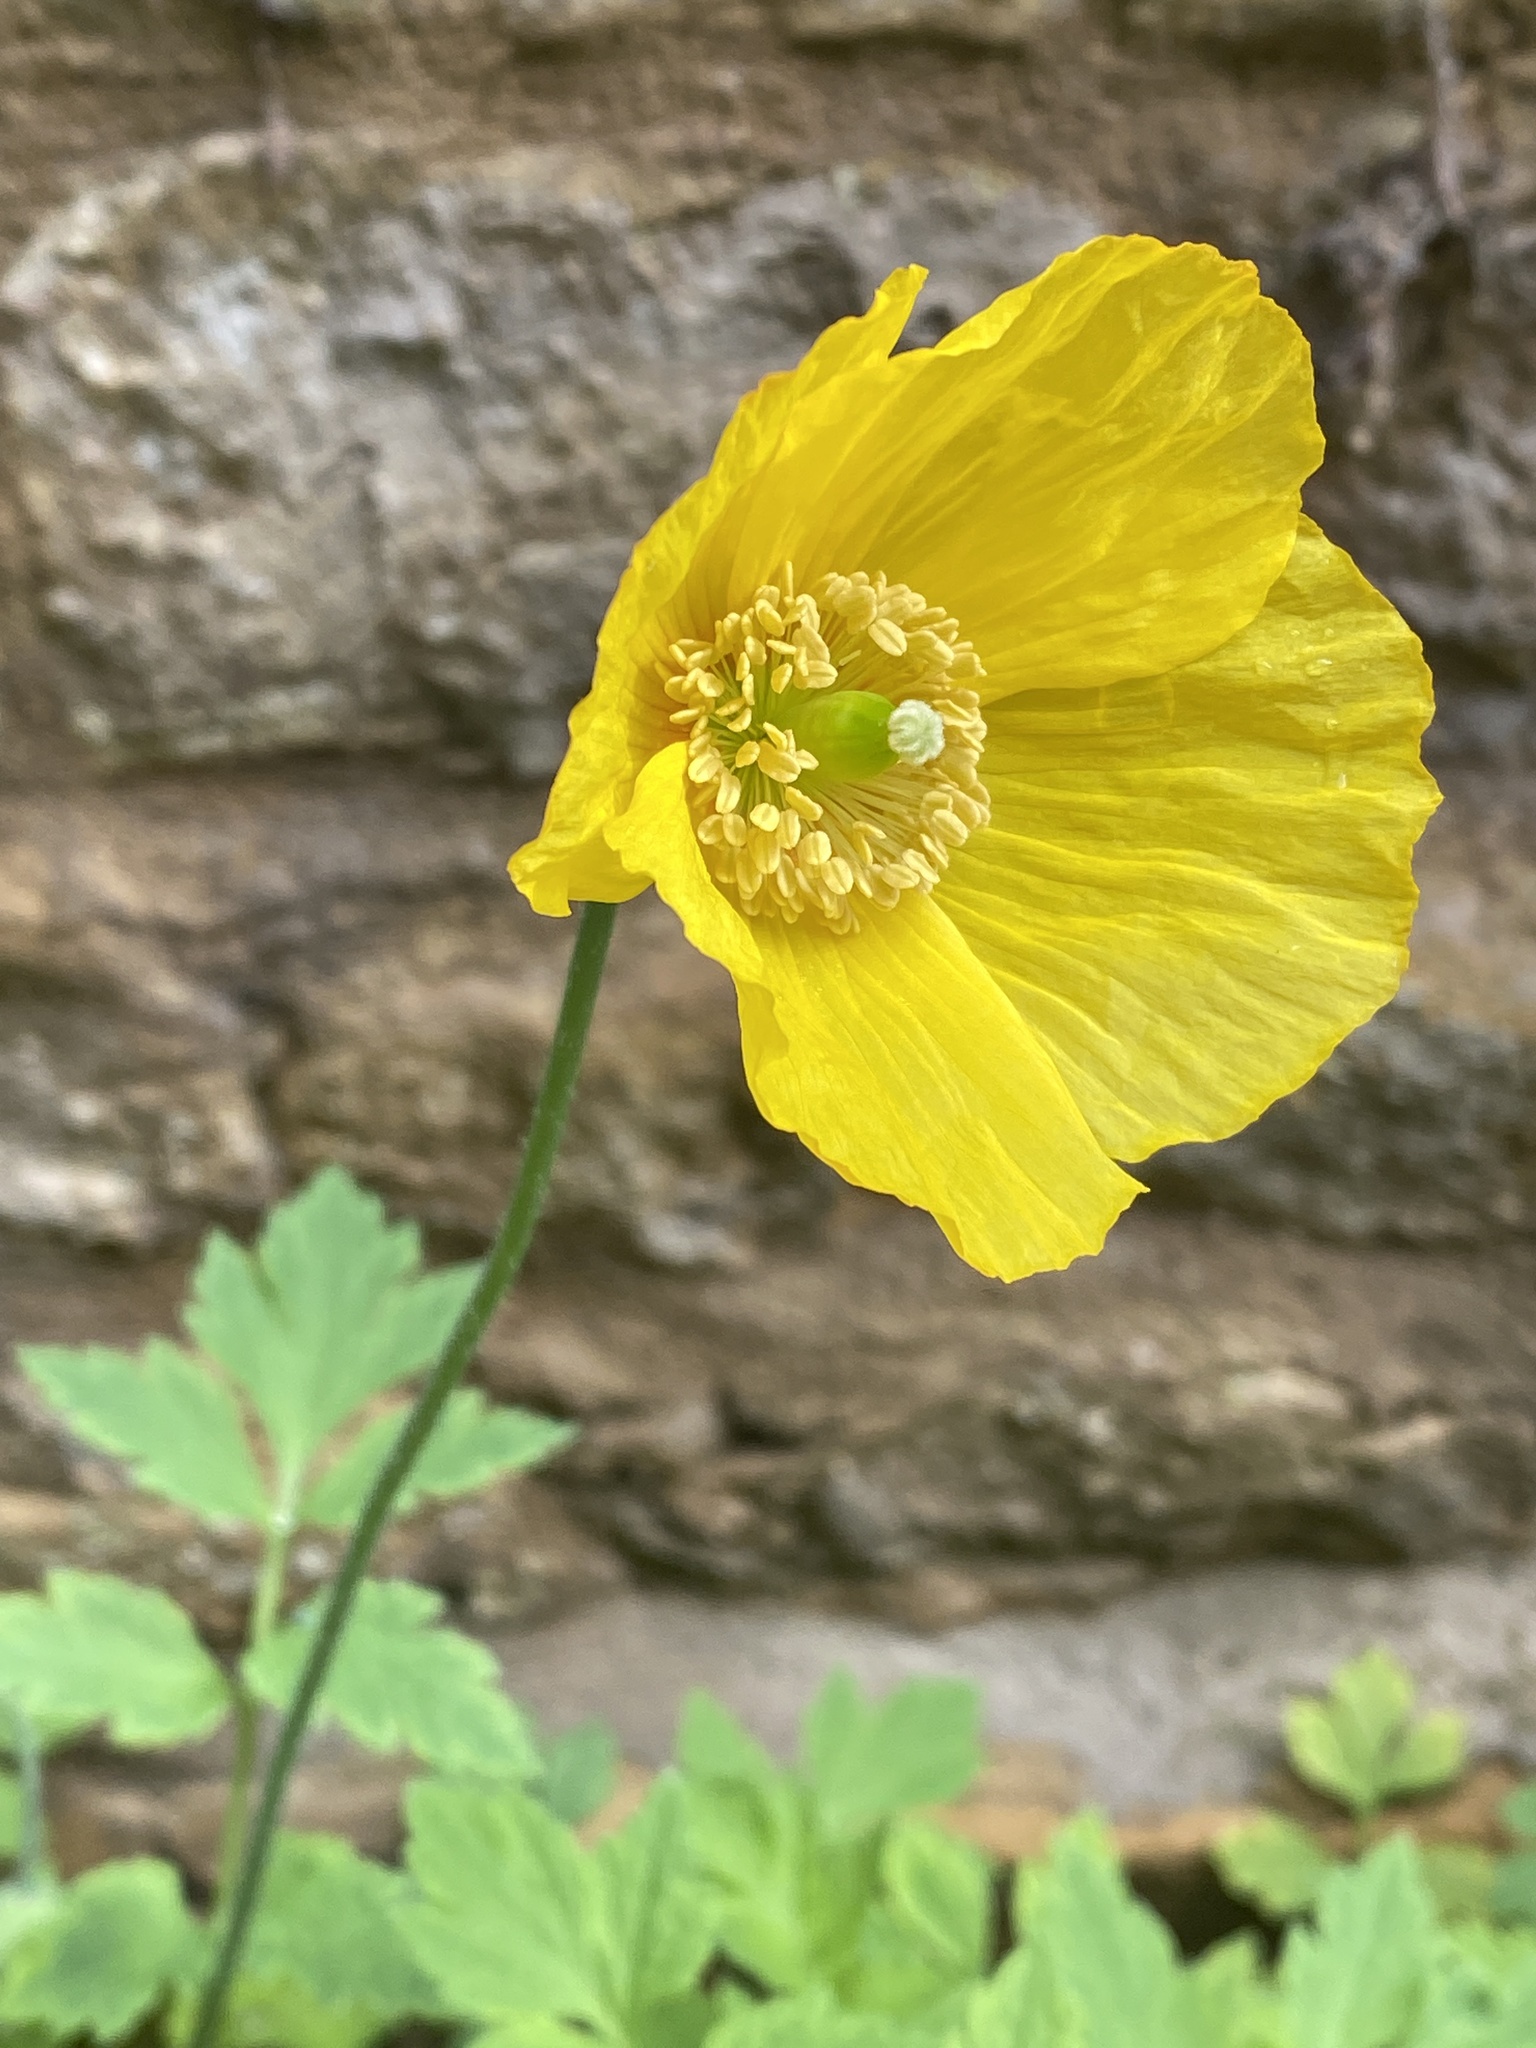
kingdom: Plantae
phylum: Tracheophyta
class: Magnoliopsida
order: Ranunculales
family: Papaveraceae
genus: Papaver
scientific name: Papaver cambricum
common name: Poppy
